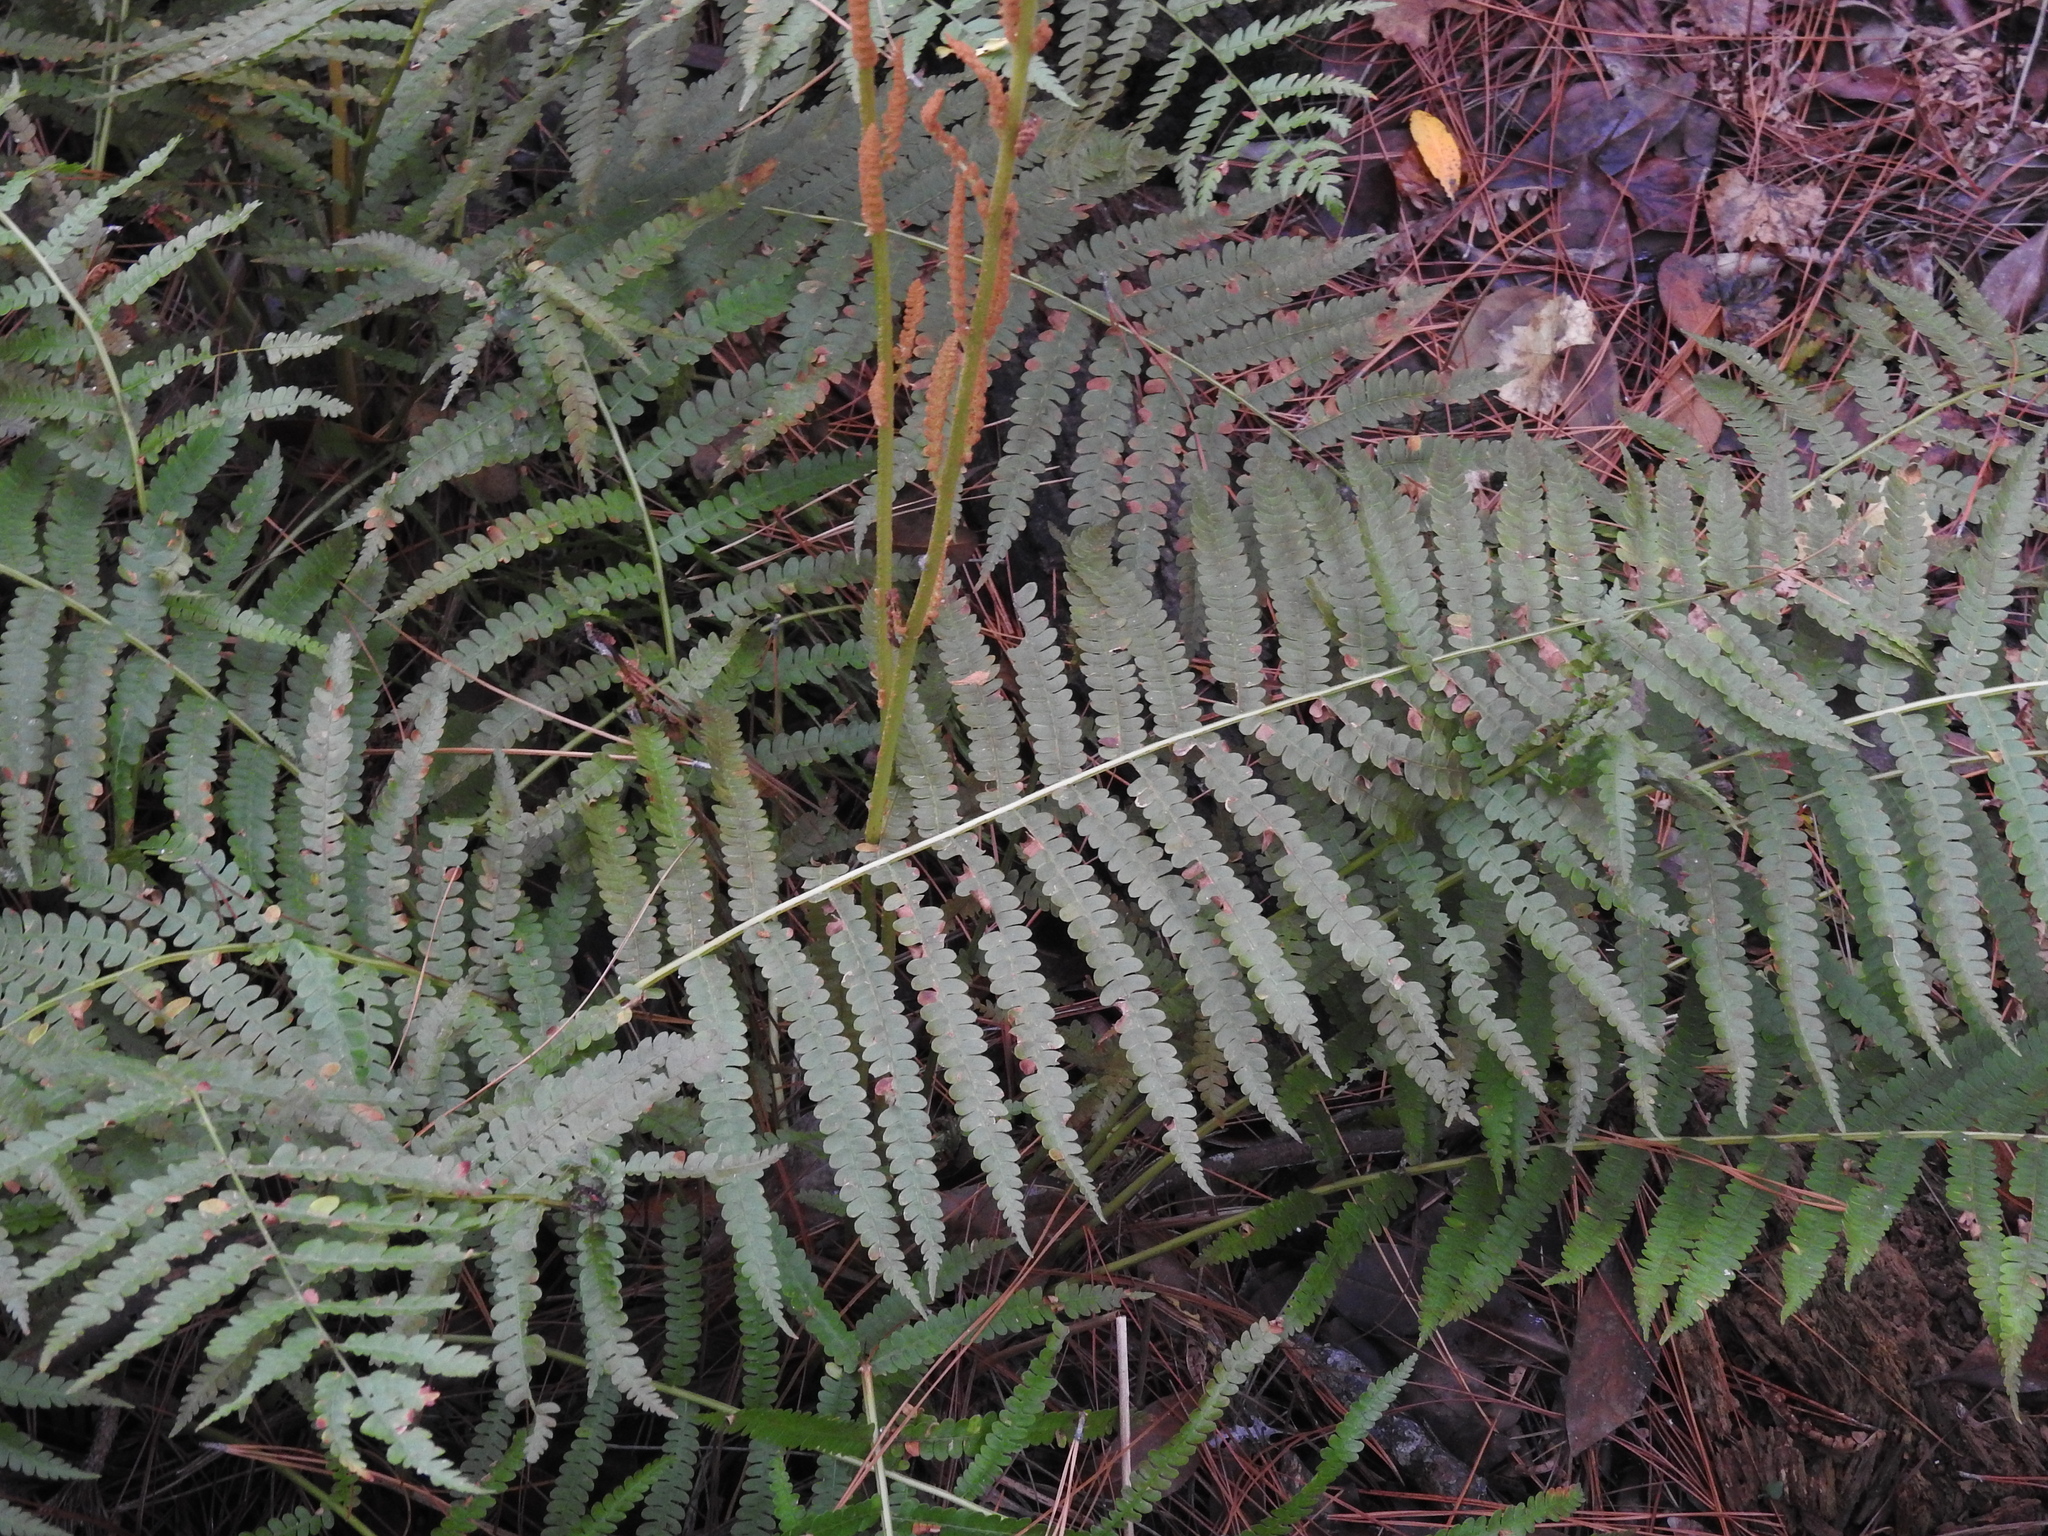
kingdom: Plantae
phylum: Tracheophyta
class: Polypodiopsida
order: Osmundales
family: Osmundaceae
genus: Osmundastrum
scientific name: Osmundastrum cinnamomeum
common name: Cinnamon fern
